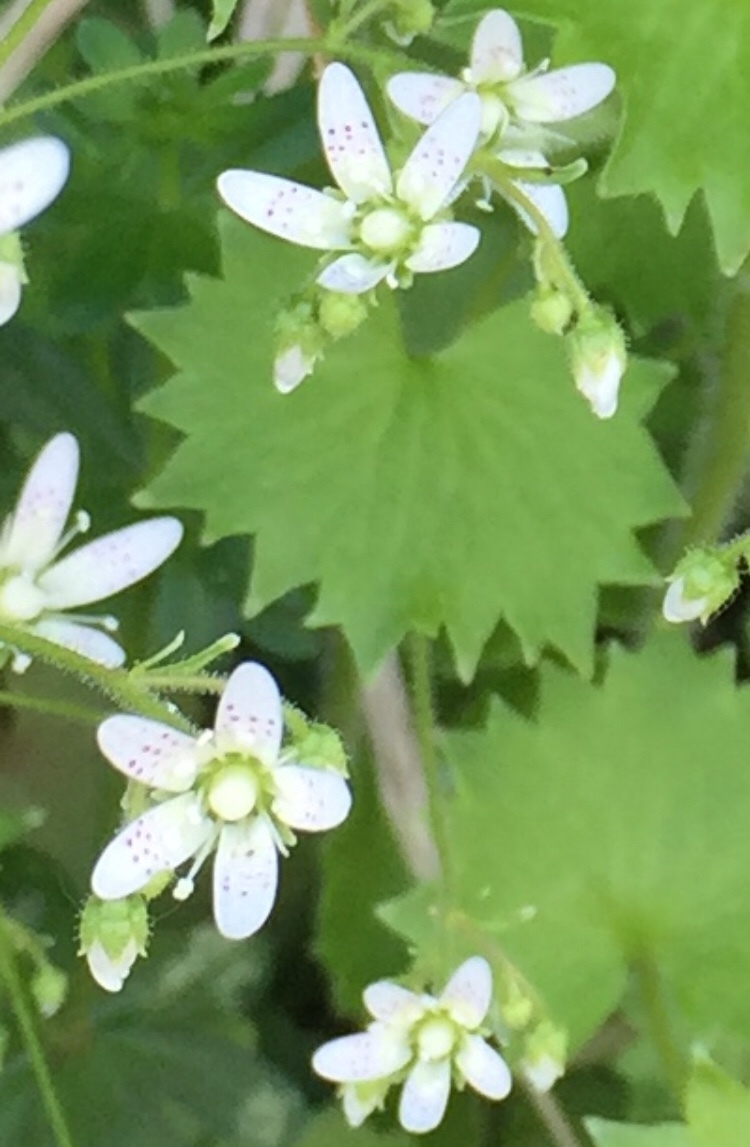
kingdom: Plantae
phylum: Tracheophyta
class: Magnoliopsida
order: Saxifragales
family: Saxifragaceae
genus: Saxifraga
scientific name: Saxifraga rotundifolia
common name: Round-leaved saxifrage
